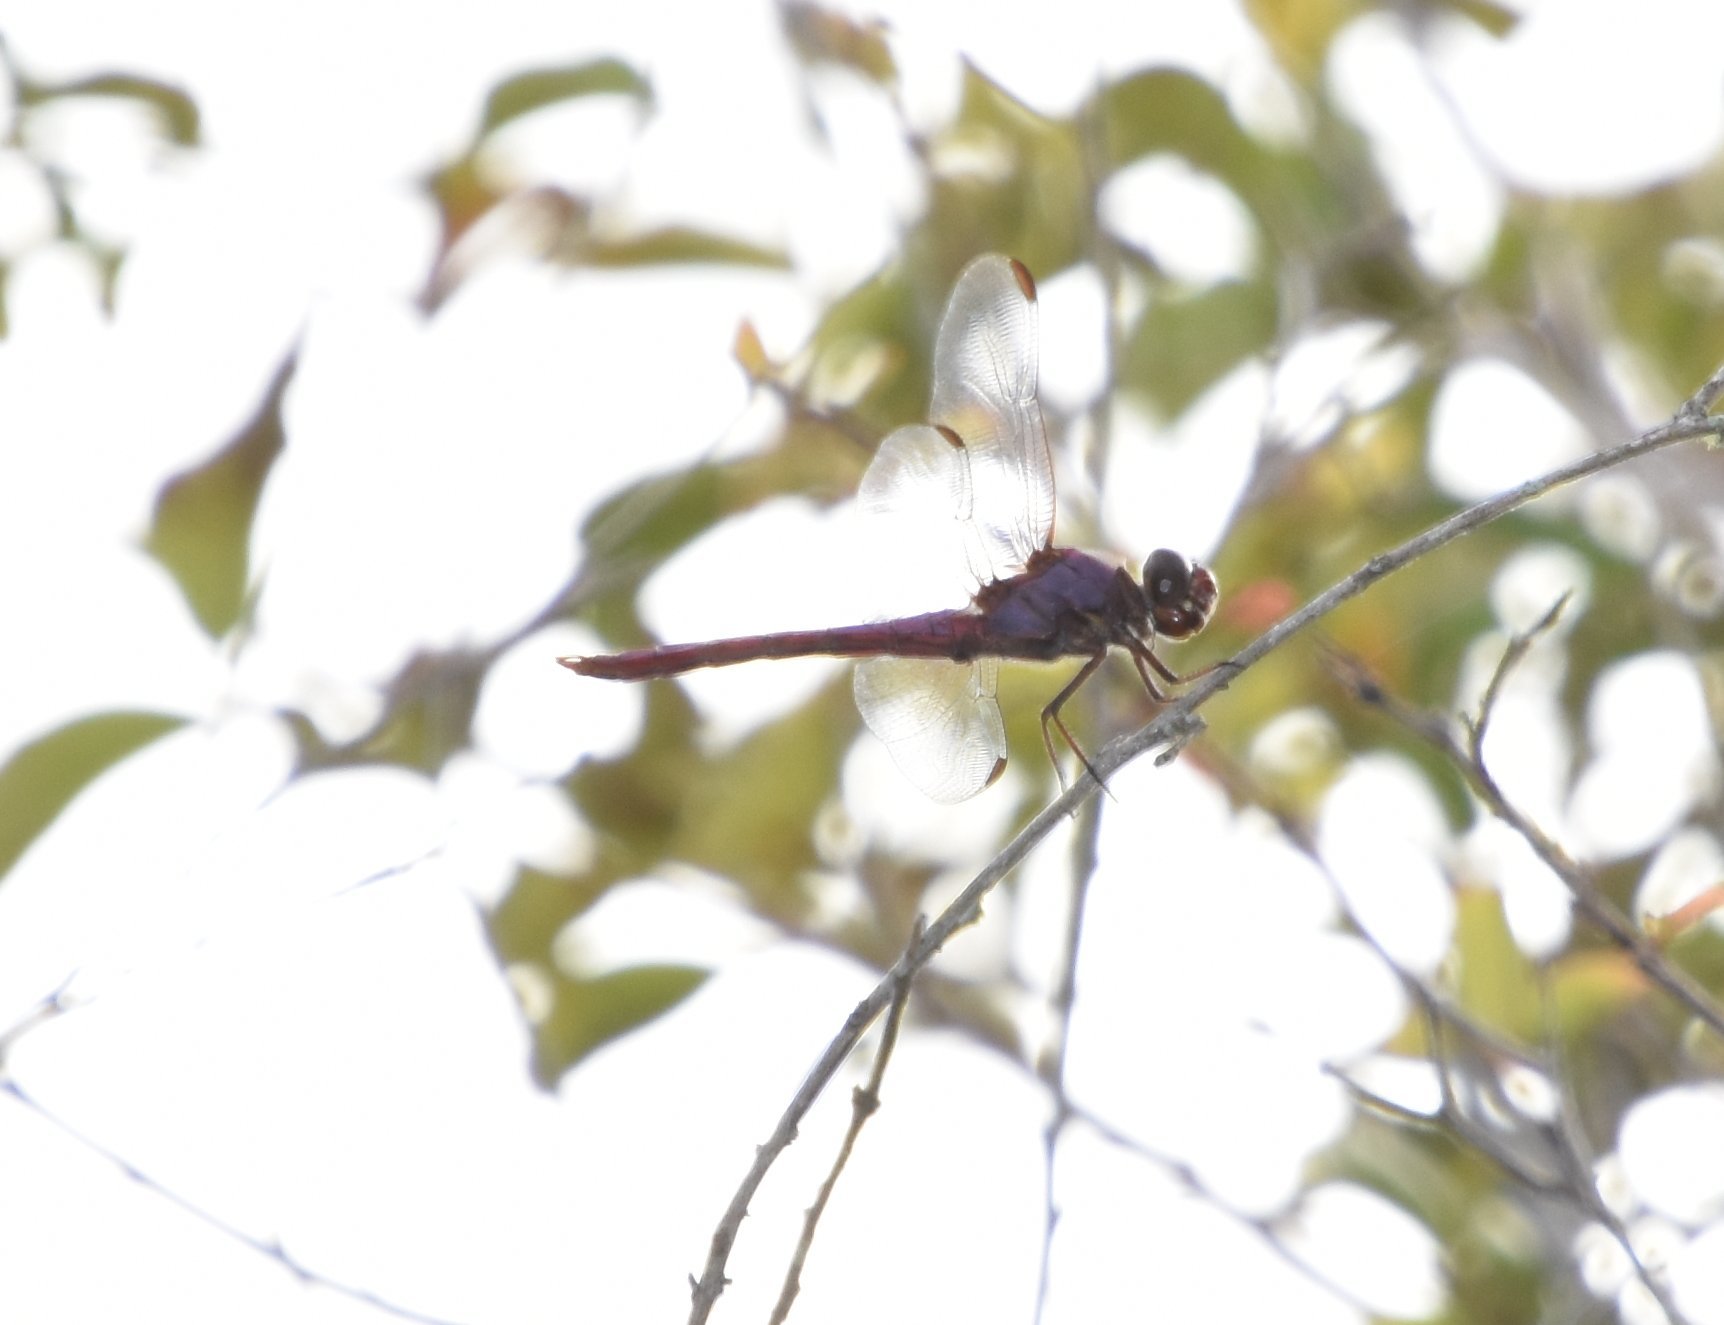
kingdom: Animalia
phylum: Arthropoda
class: Insecta
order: Odonata
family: Libellulidae
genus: Orthemis
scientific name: Orthemis ferruginea
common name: Roseate skimmer
